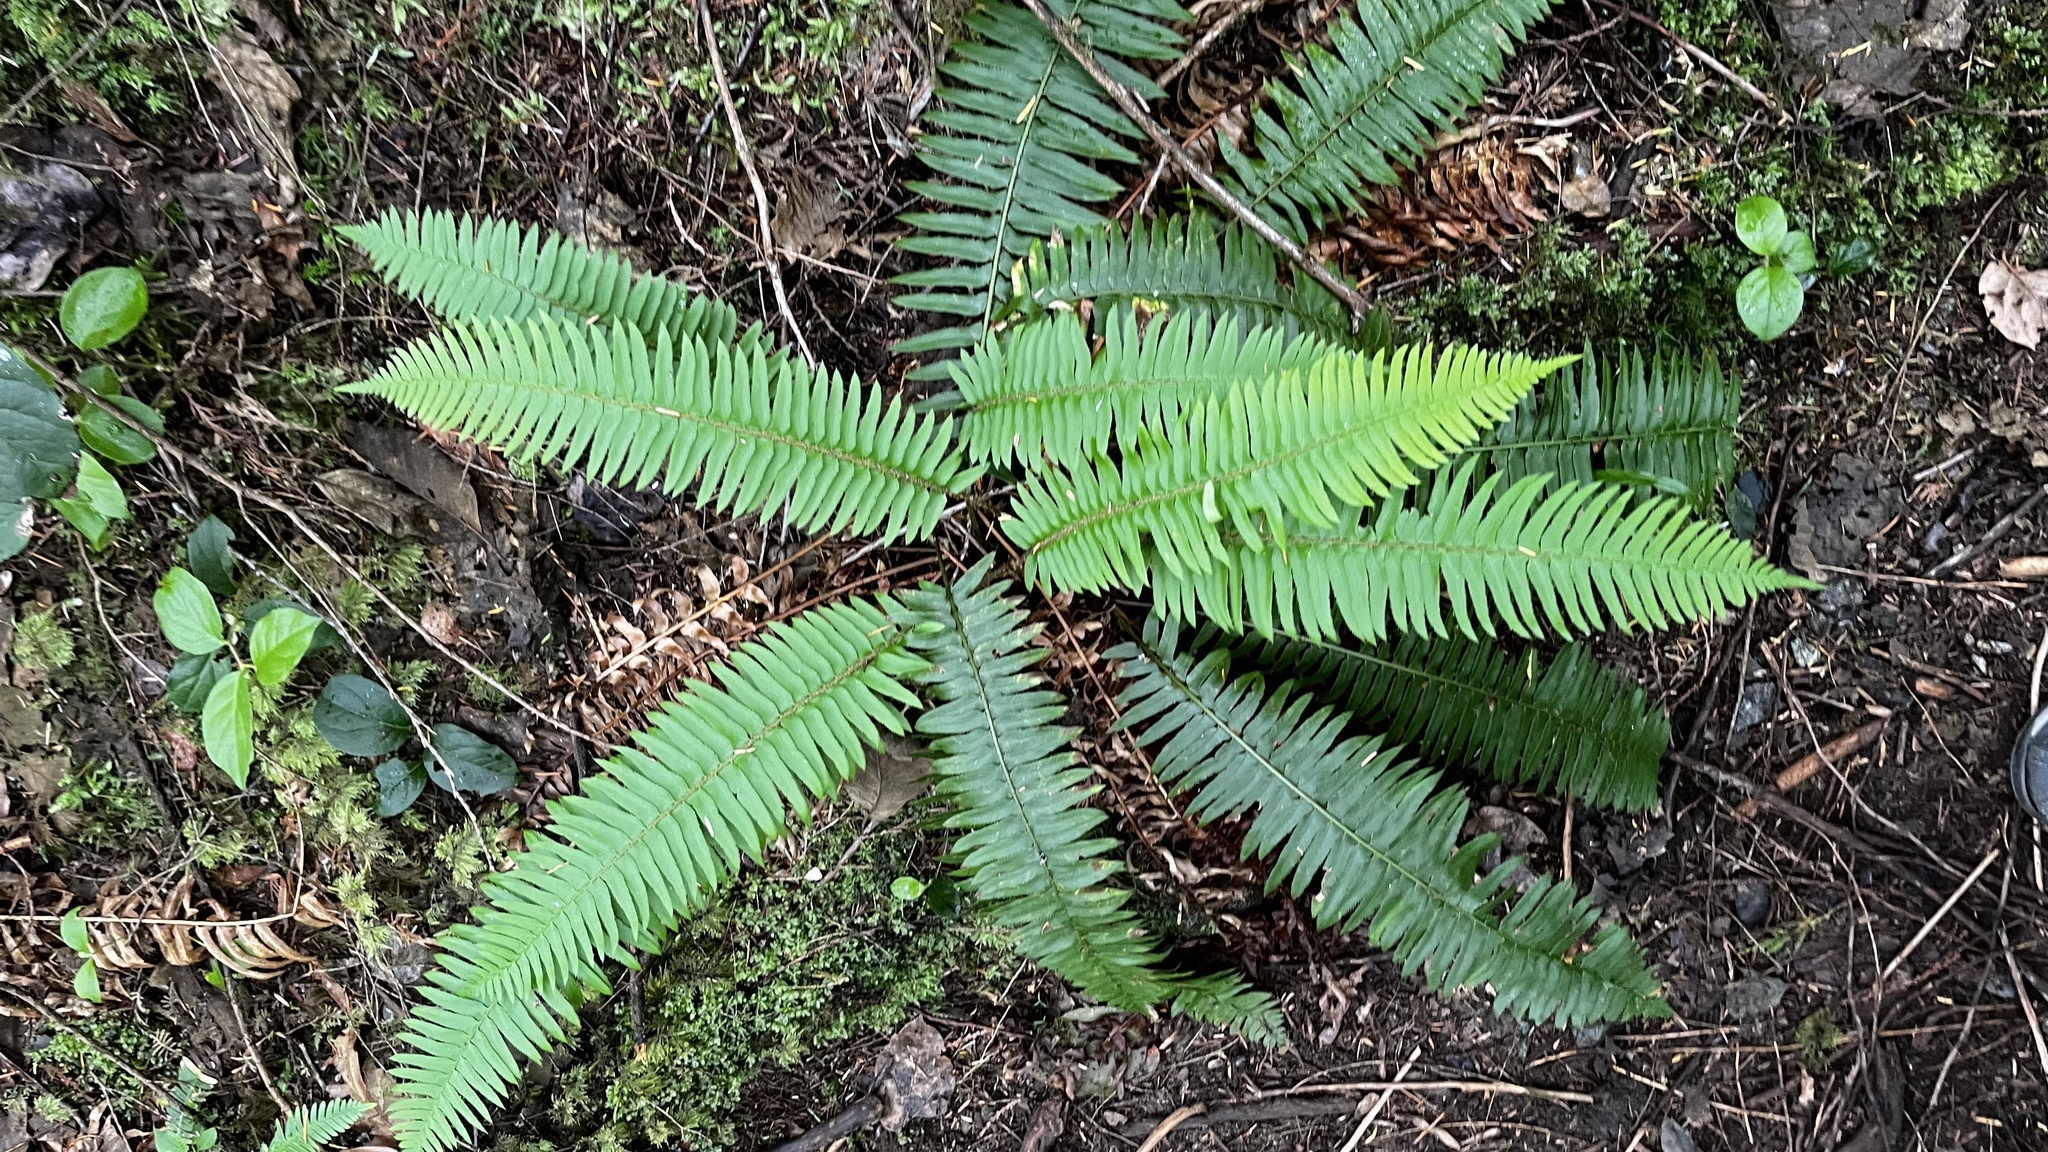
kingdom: Plantae
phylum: Tracheophyta
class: Polypodiopsida
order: Polypodiales
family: Dryopteridaceae
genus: Polystichum
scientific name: Polystichum munitum
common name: Western sword-fern
